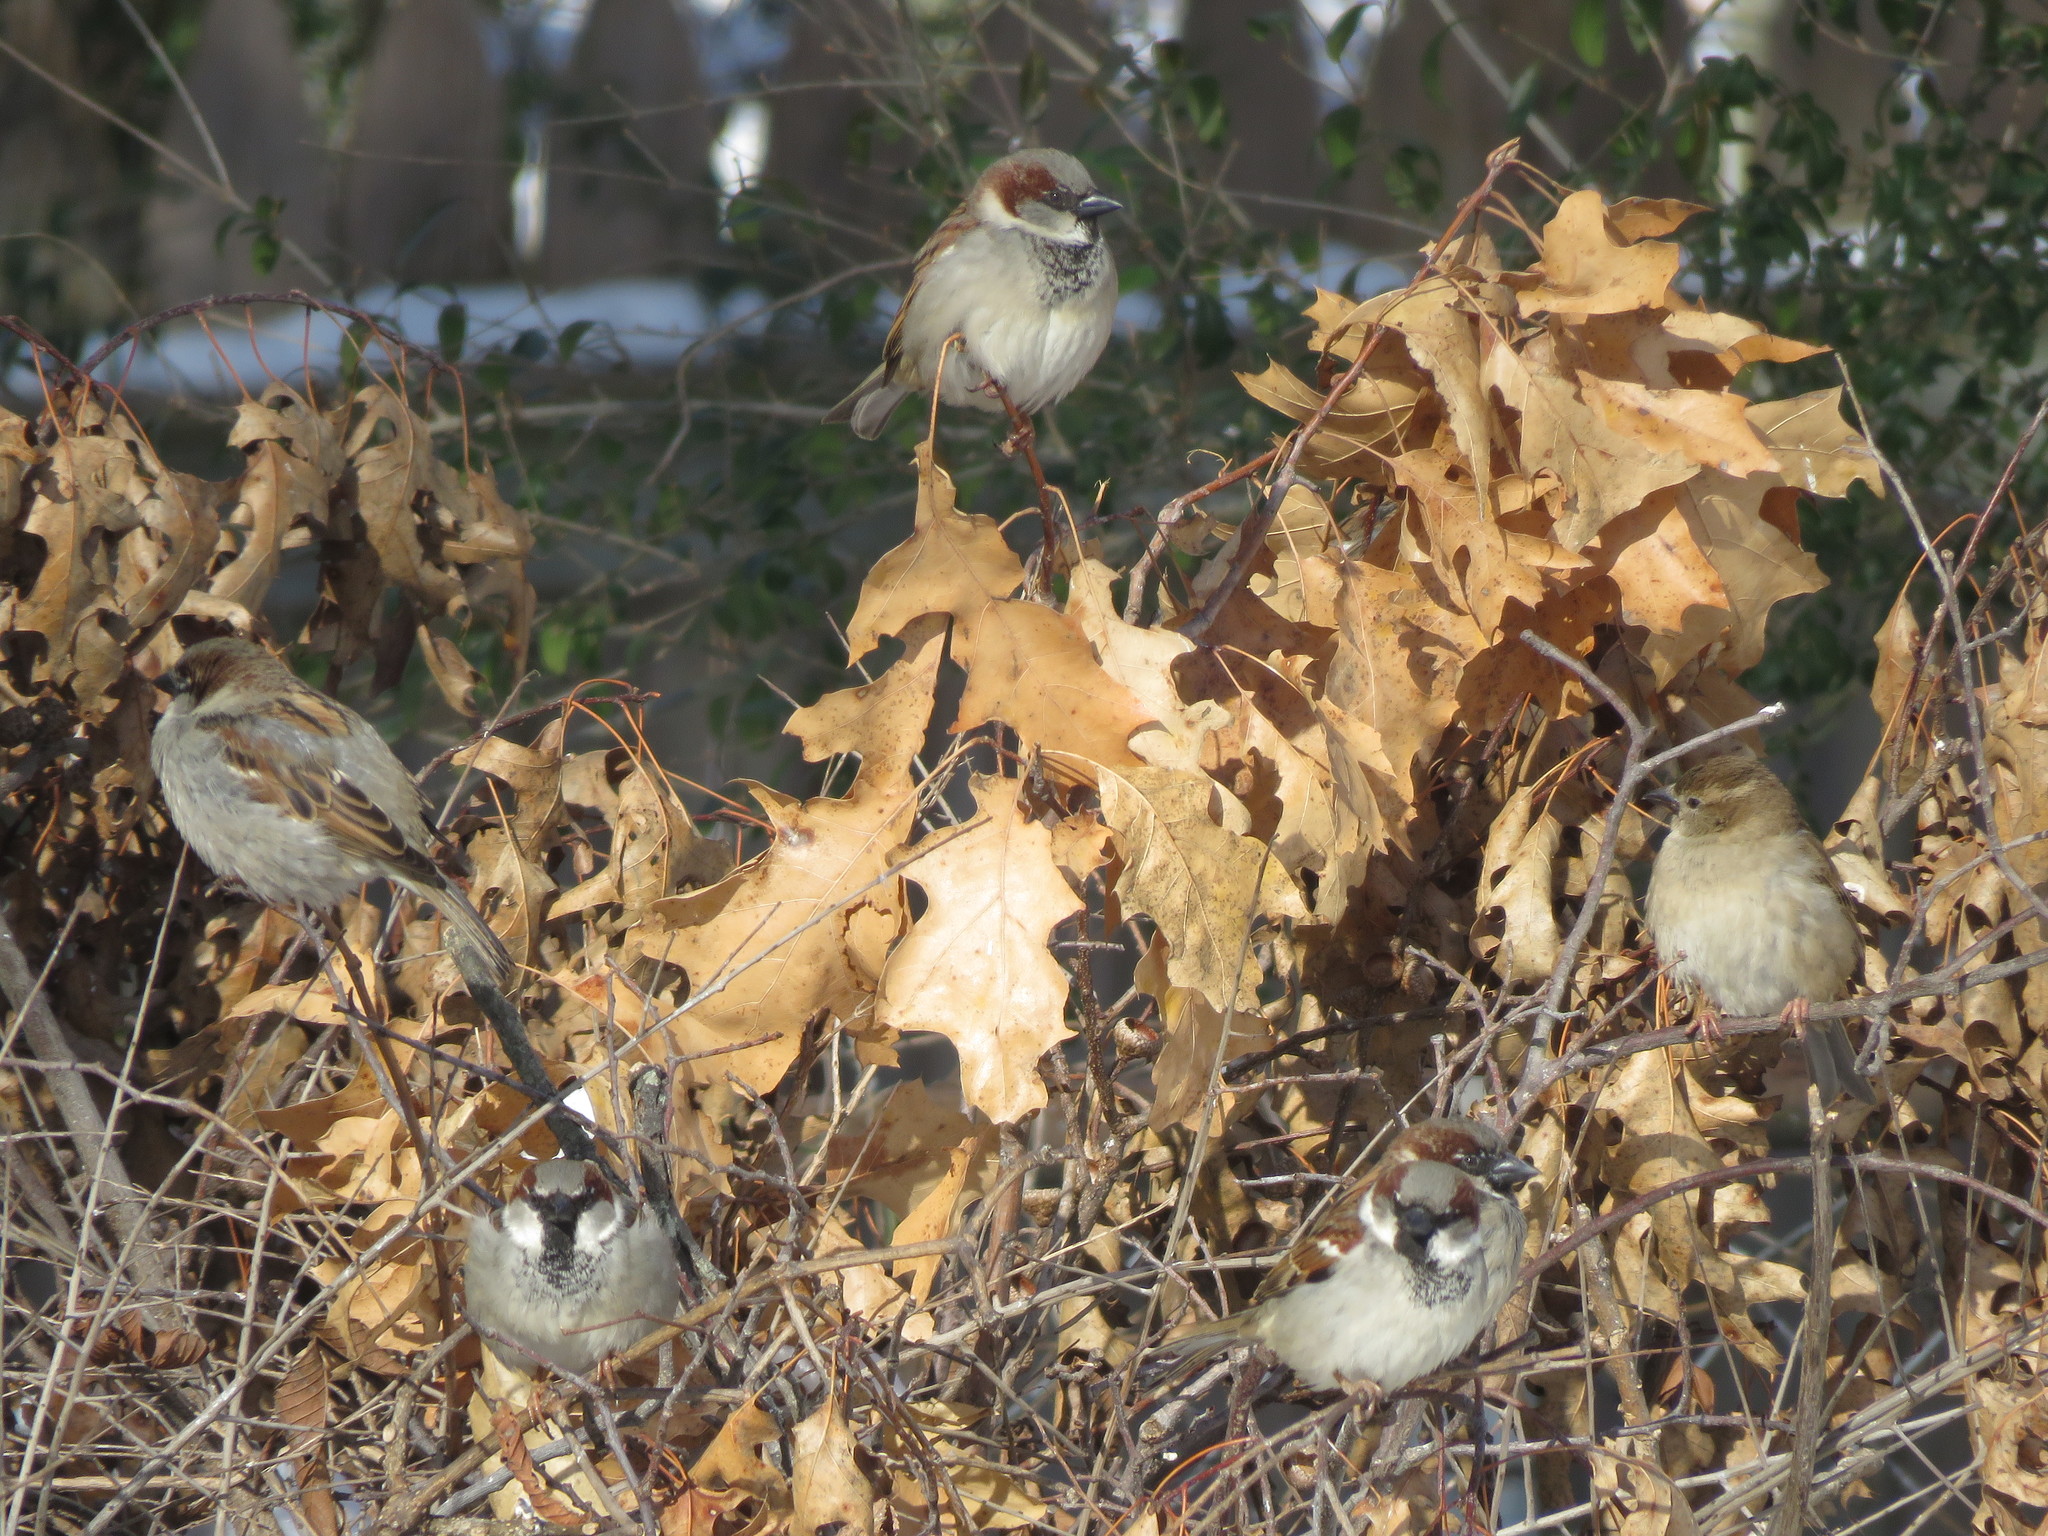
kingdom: Animalia
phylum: Chordata
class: Aves
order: Passeriformes
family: Passeridae
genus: Passer
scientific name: Passer domesticus
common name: House sparrow
